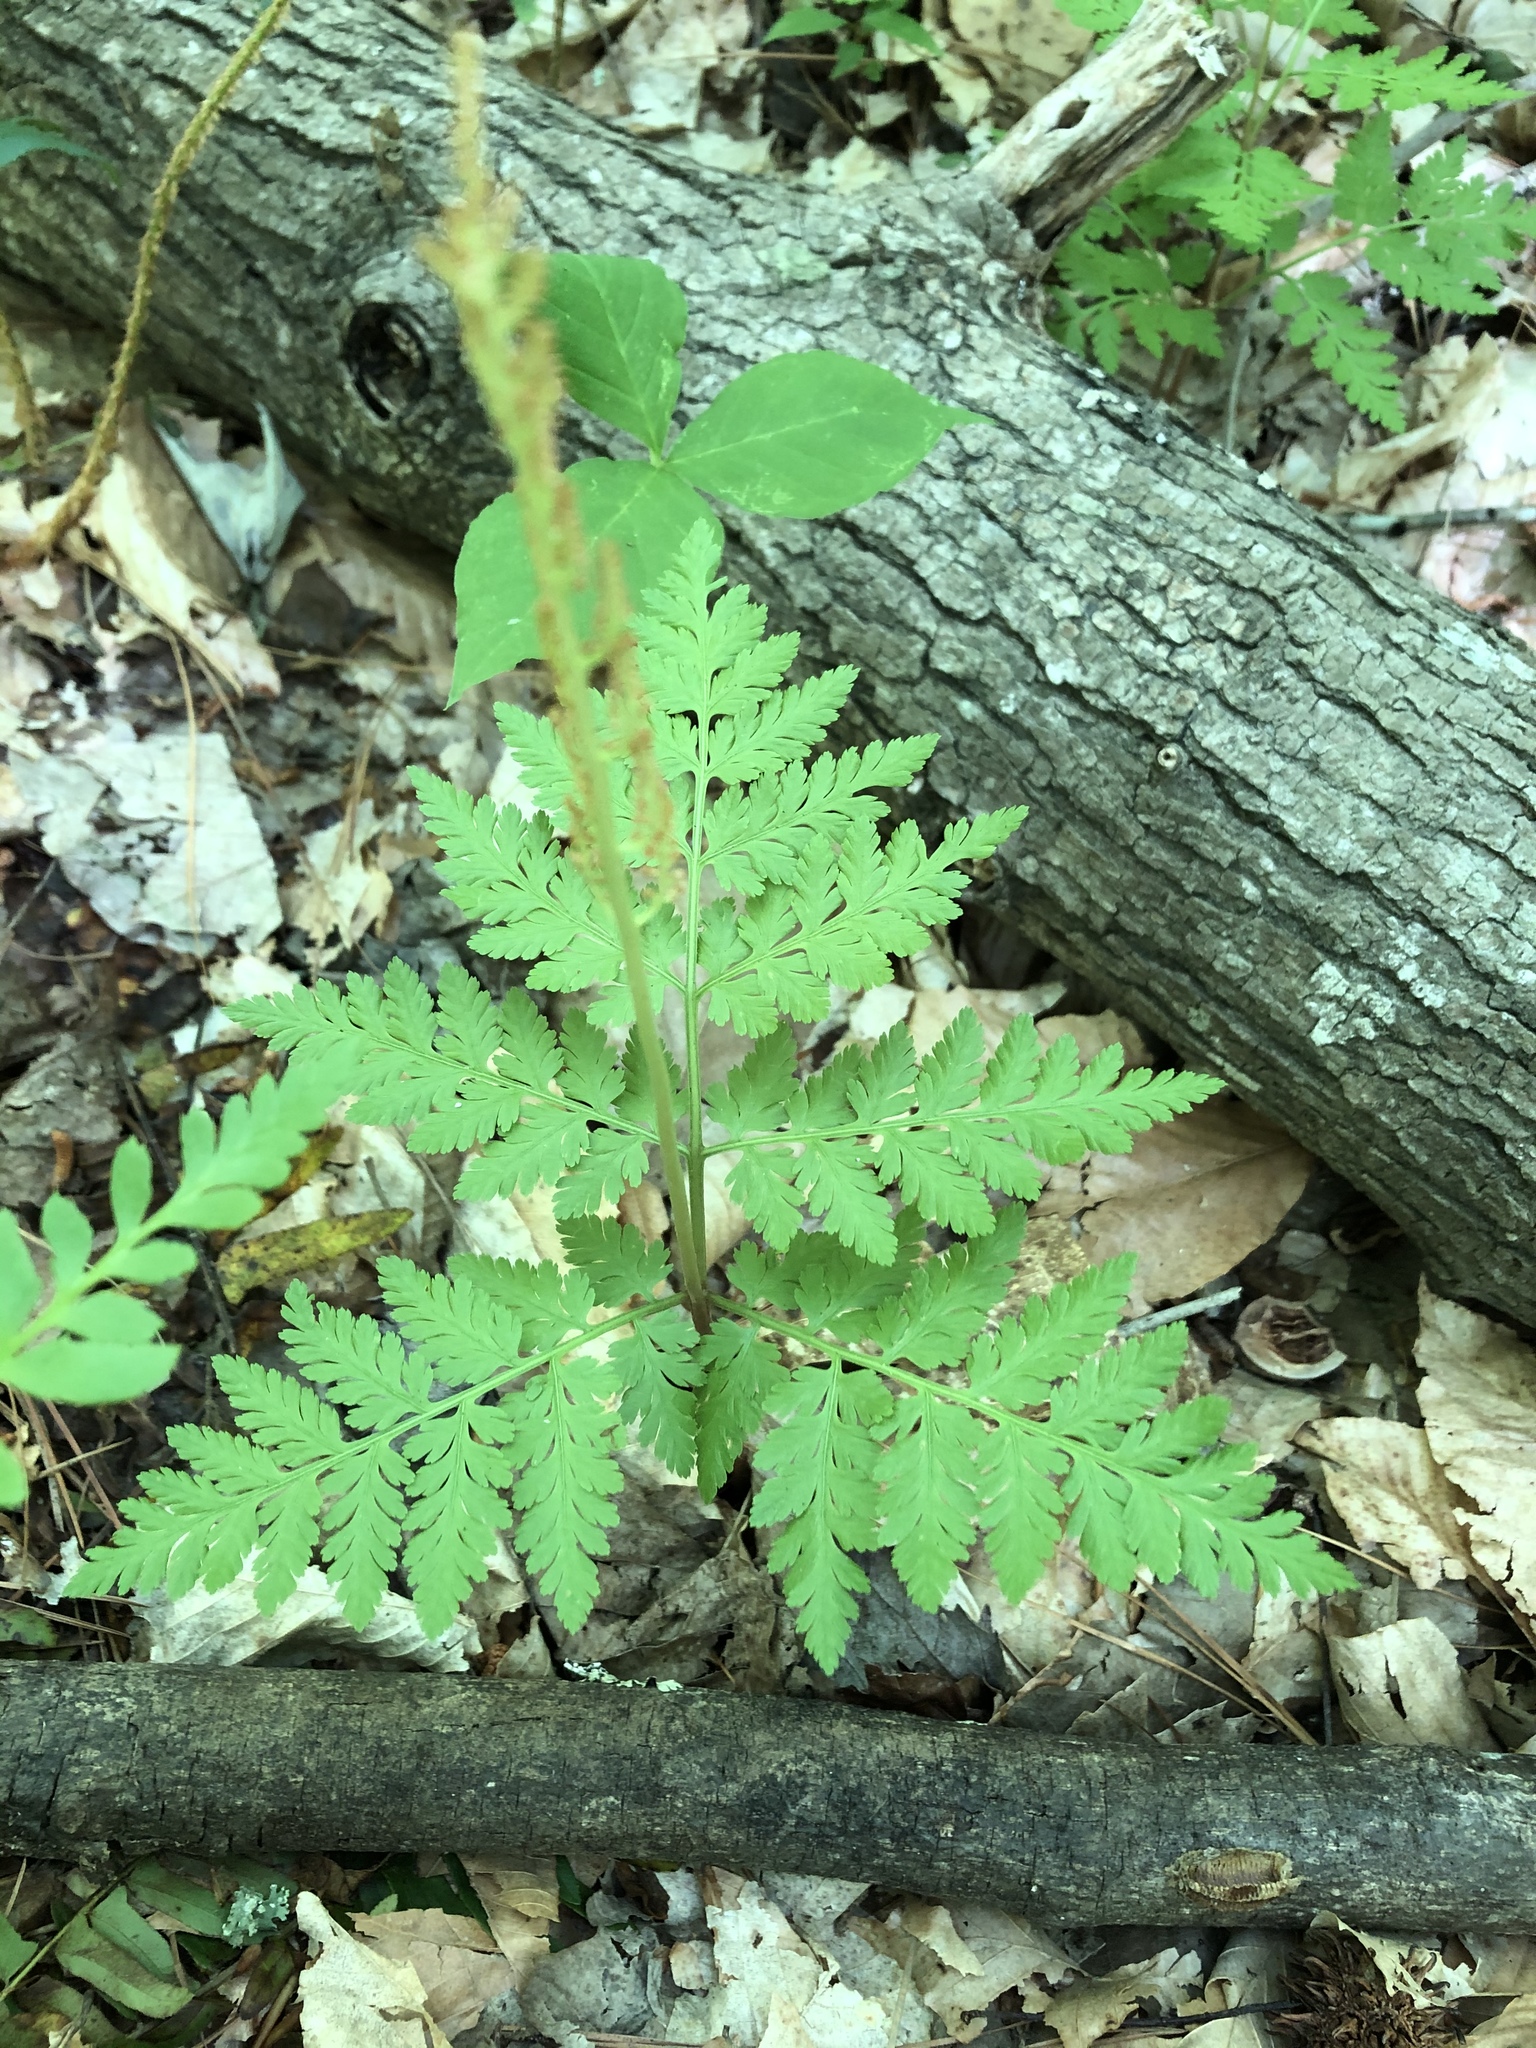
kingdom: Plantae
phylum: Tracheophyta
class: Polypodiopsida
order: Ophioglossales
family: Ophioglossaceae
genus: Botrypus
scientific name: Botrypus virginianus
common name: Common grapefern
